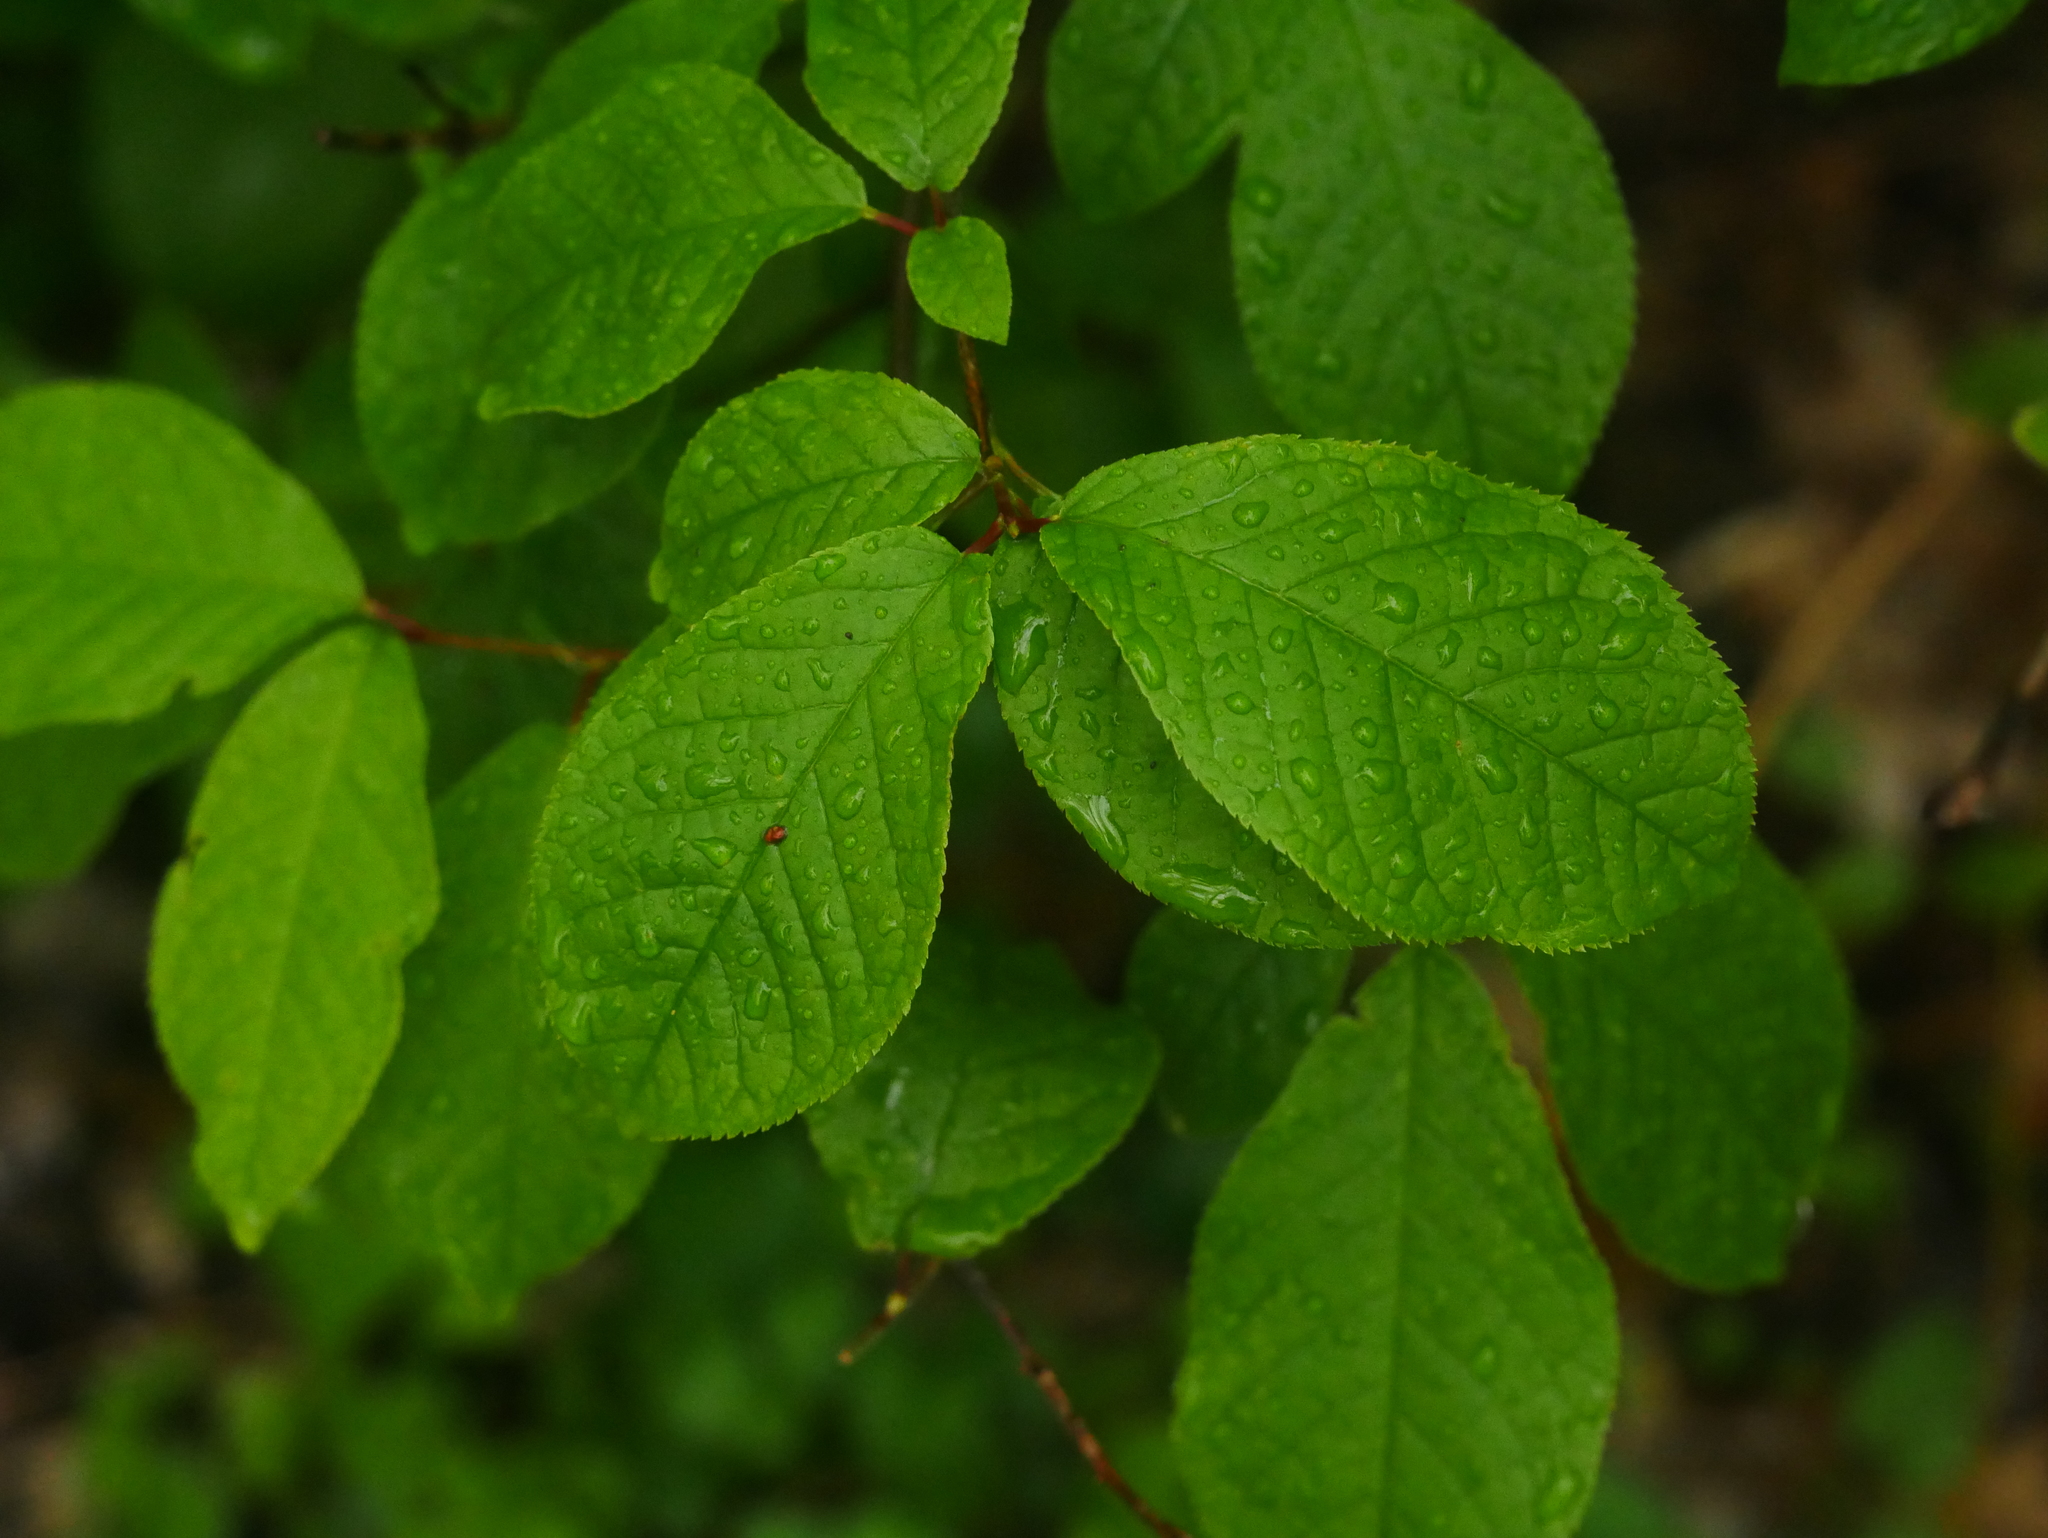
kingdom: Plantae
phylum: Tracheophyta
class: Magnoliopsida
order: Rosales
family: Rosaceae
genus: Prunus
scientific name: Prunus padus
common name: Bird cherry
